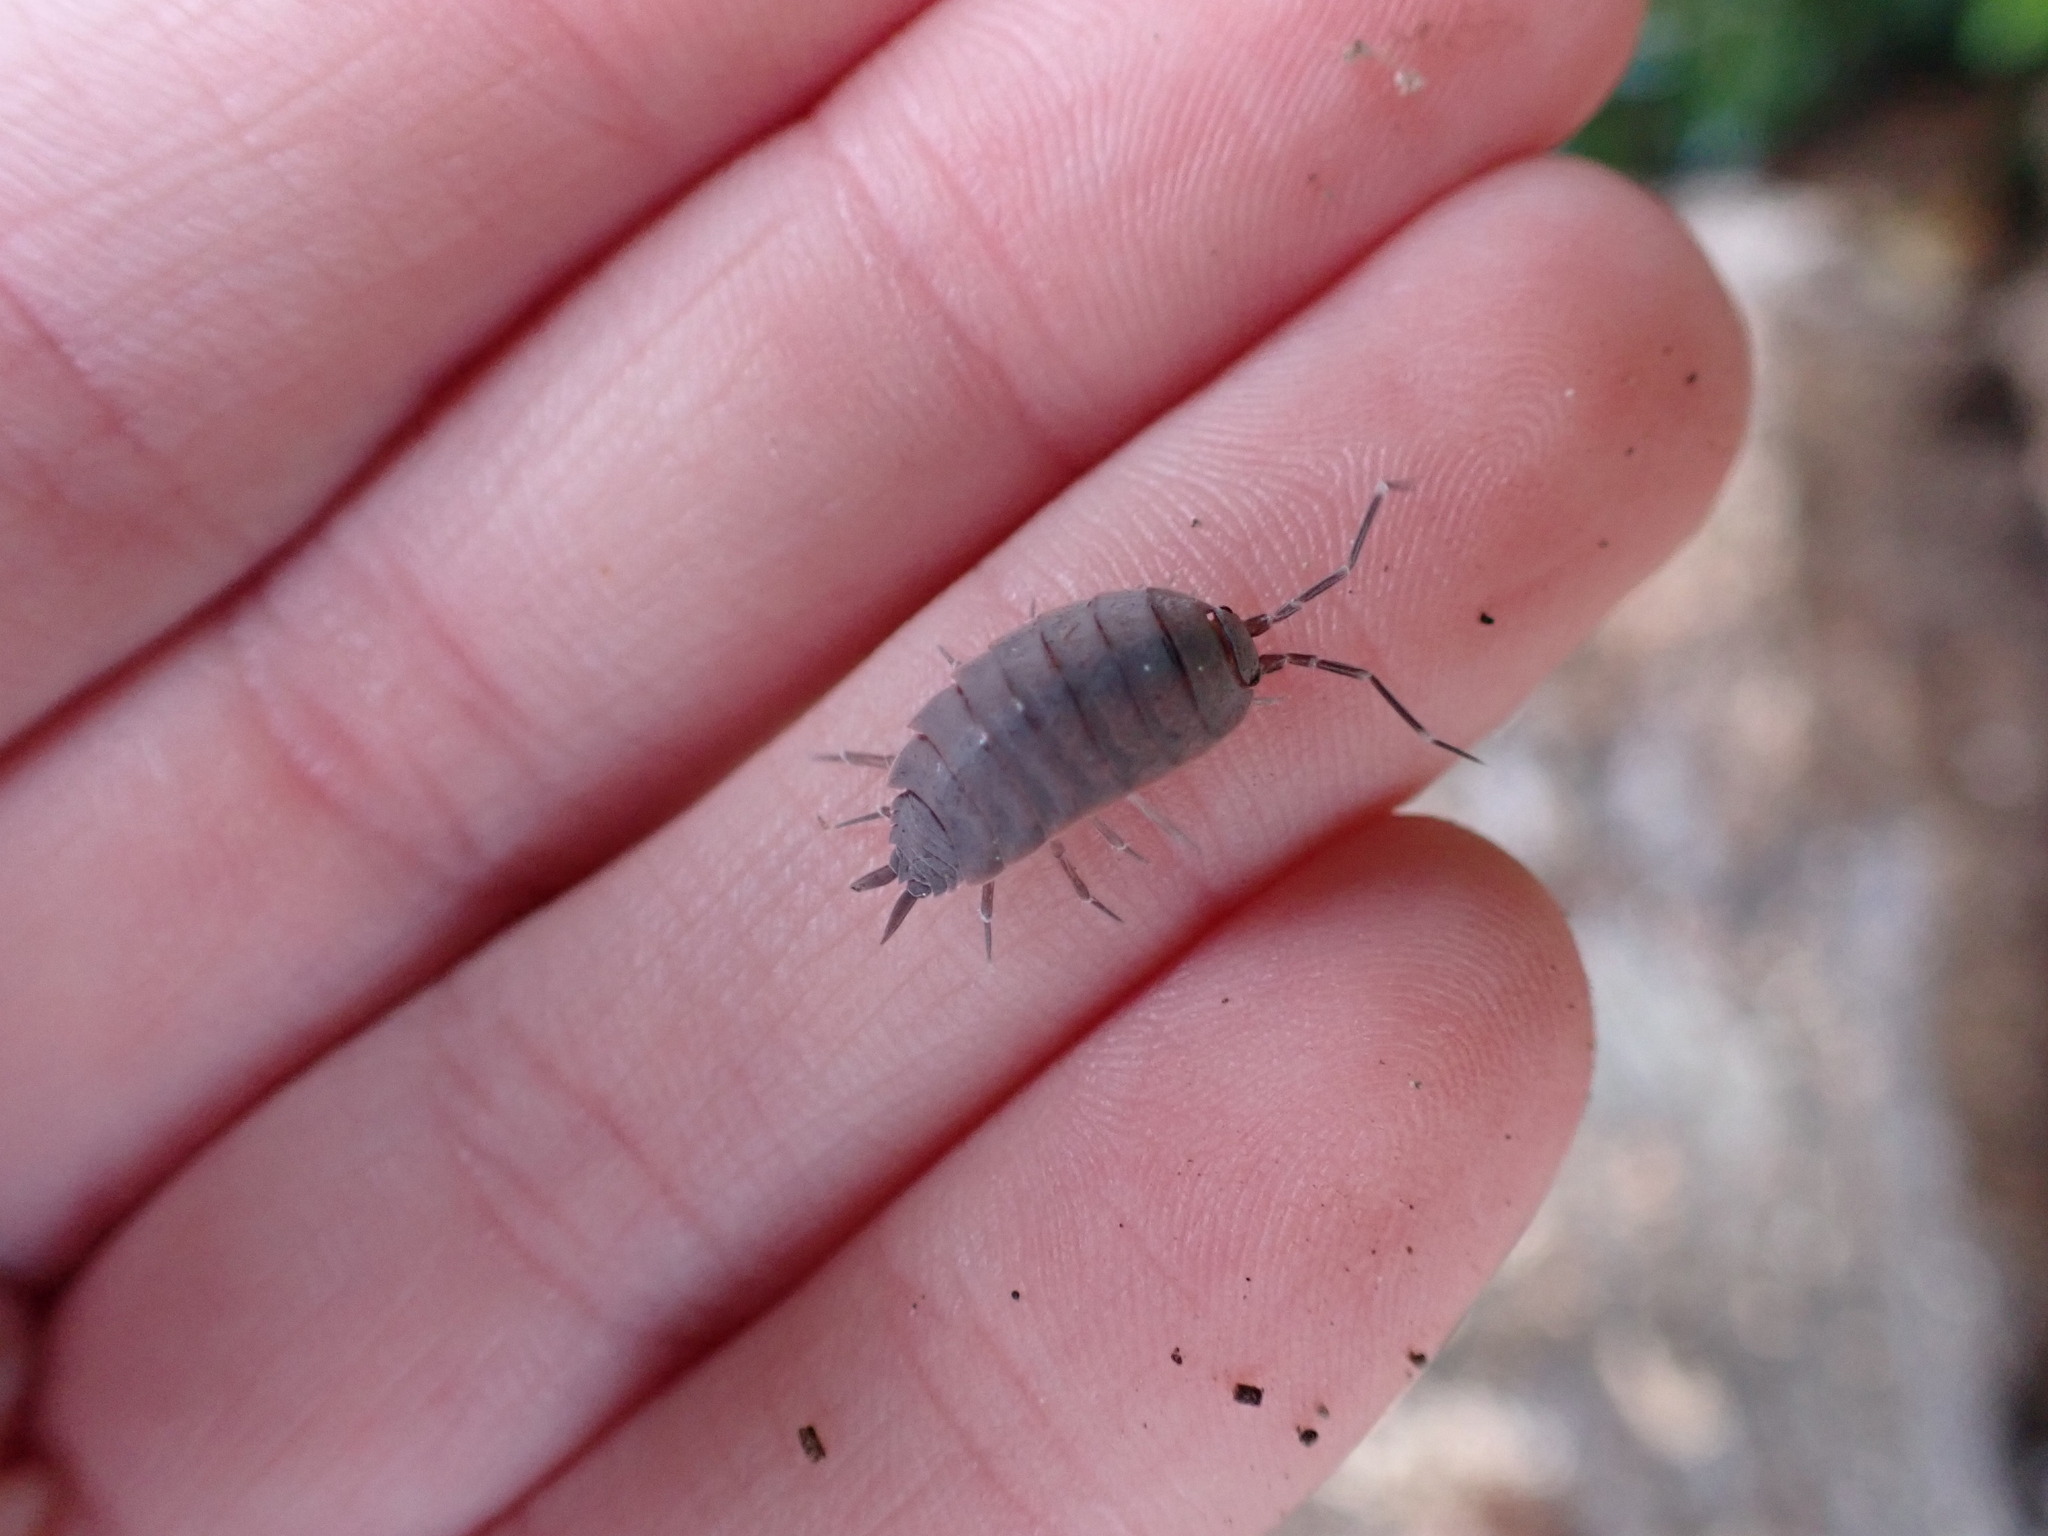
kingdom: Animalia
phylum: Arthropoda
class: Malacostraca
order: Isopoda
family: Porcellionidae
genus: Porcellionides
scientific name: Porcellionides
